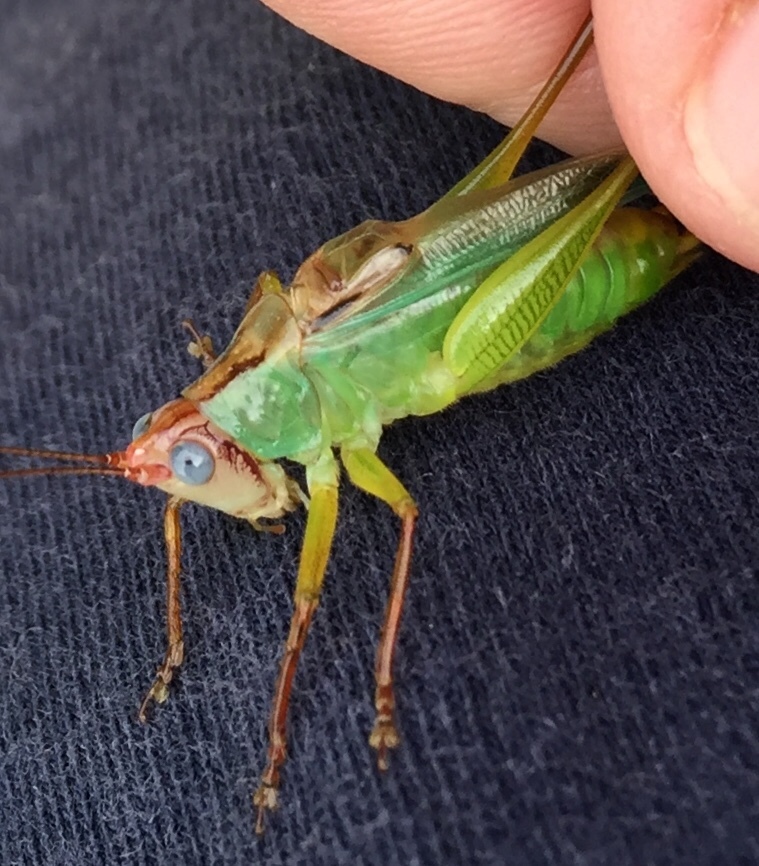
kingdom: Animalia
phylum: Arthropoda
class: Insecta
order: Orthoptera
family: Tettigoniidae
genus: Orchelimum
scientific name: Orchelimum pulchellum
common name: Handsome meadow katydid
